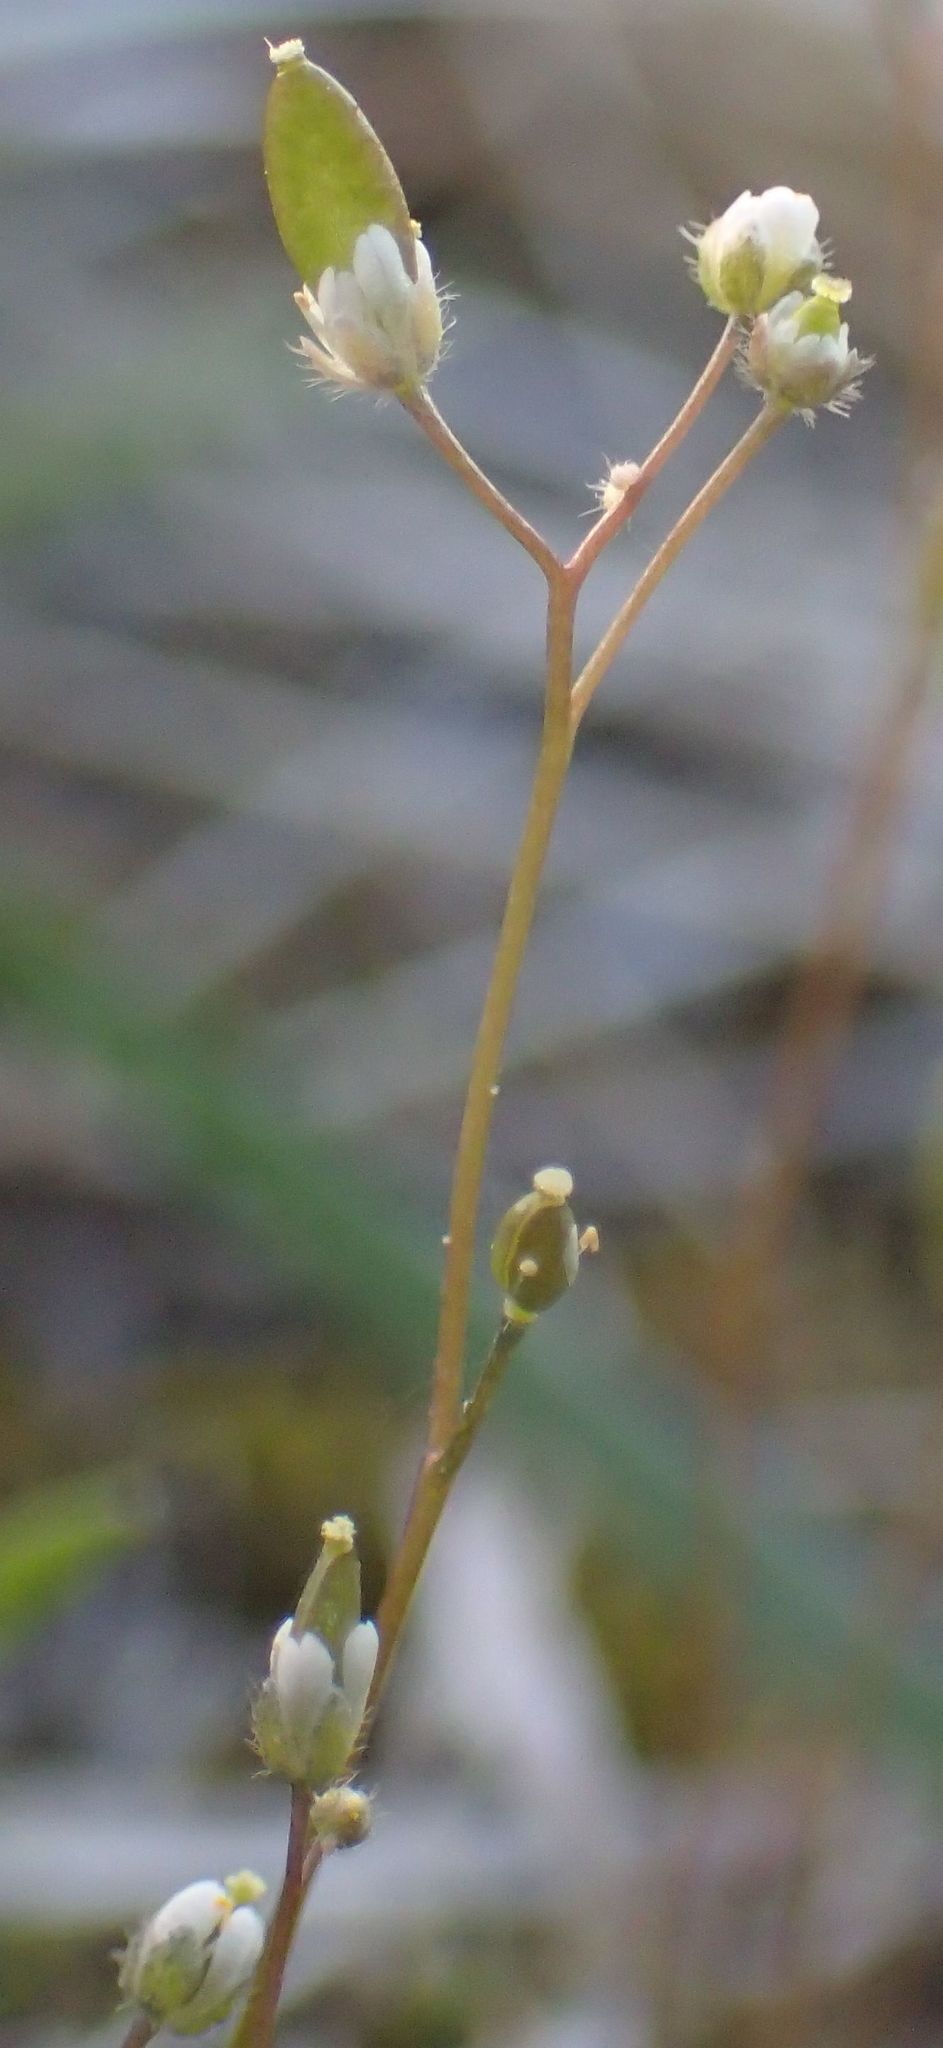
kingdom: Plantae
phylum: Tracheophyta
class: Magnoliopsida
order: Brassicales
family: Brassicaceae
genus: Draba
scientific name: Draba verna
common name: Spring draba
